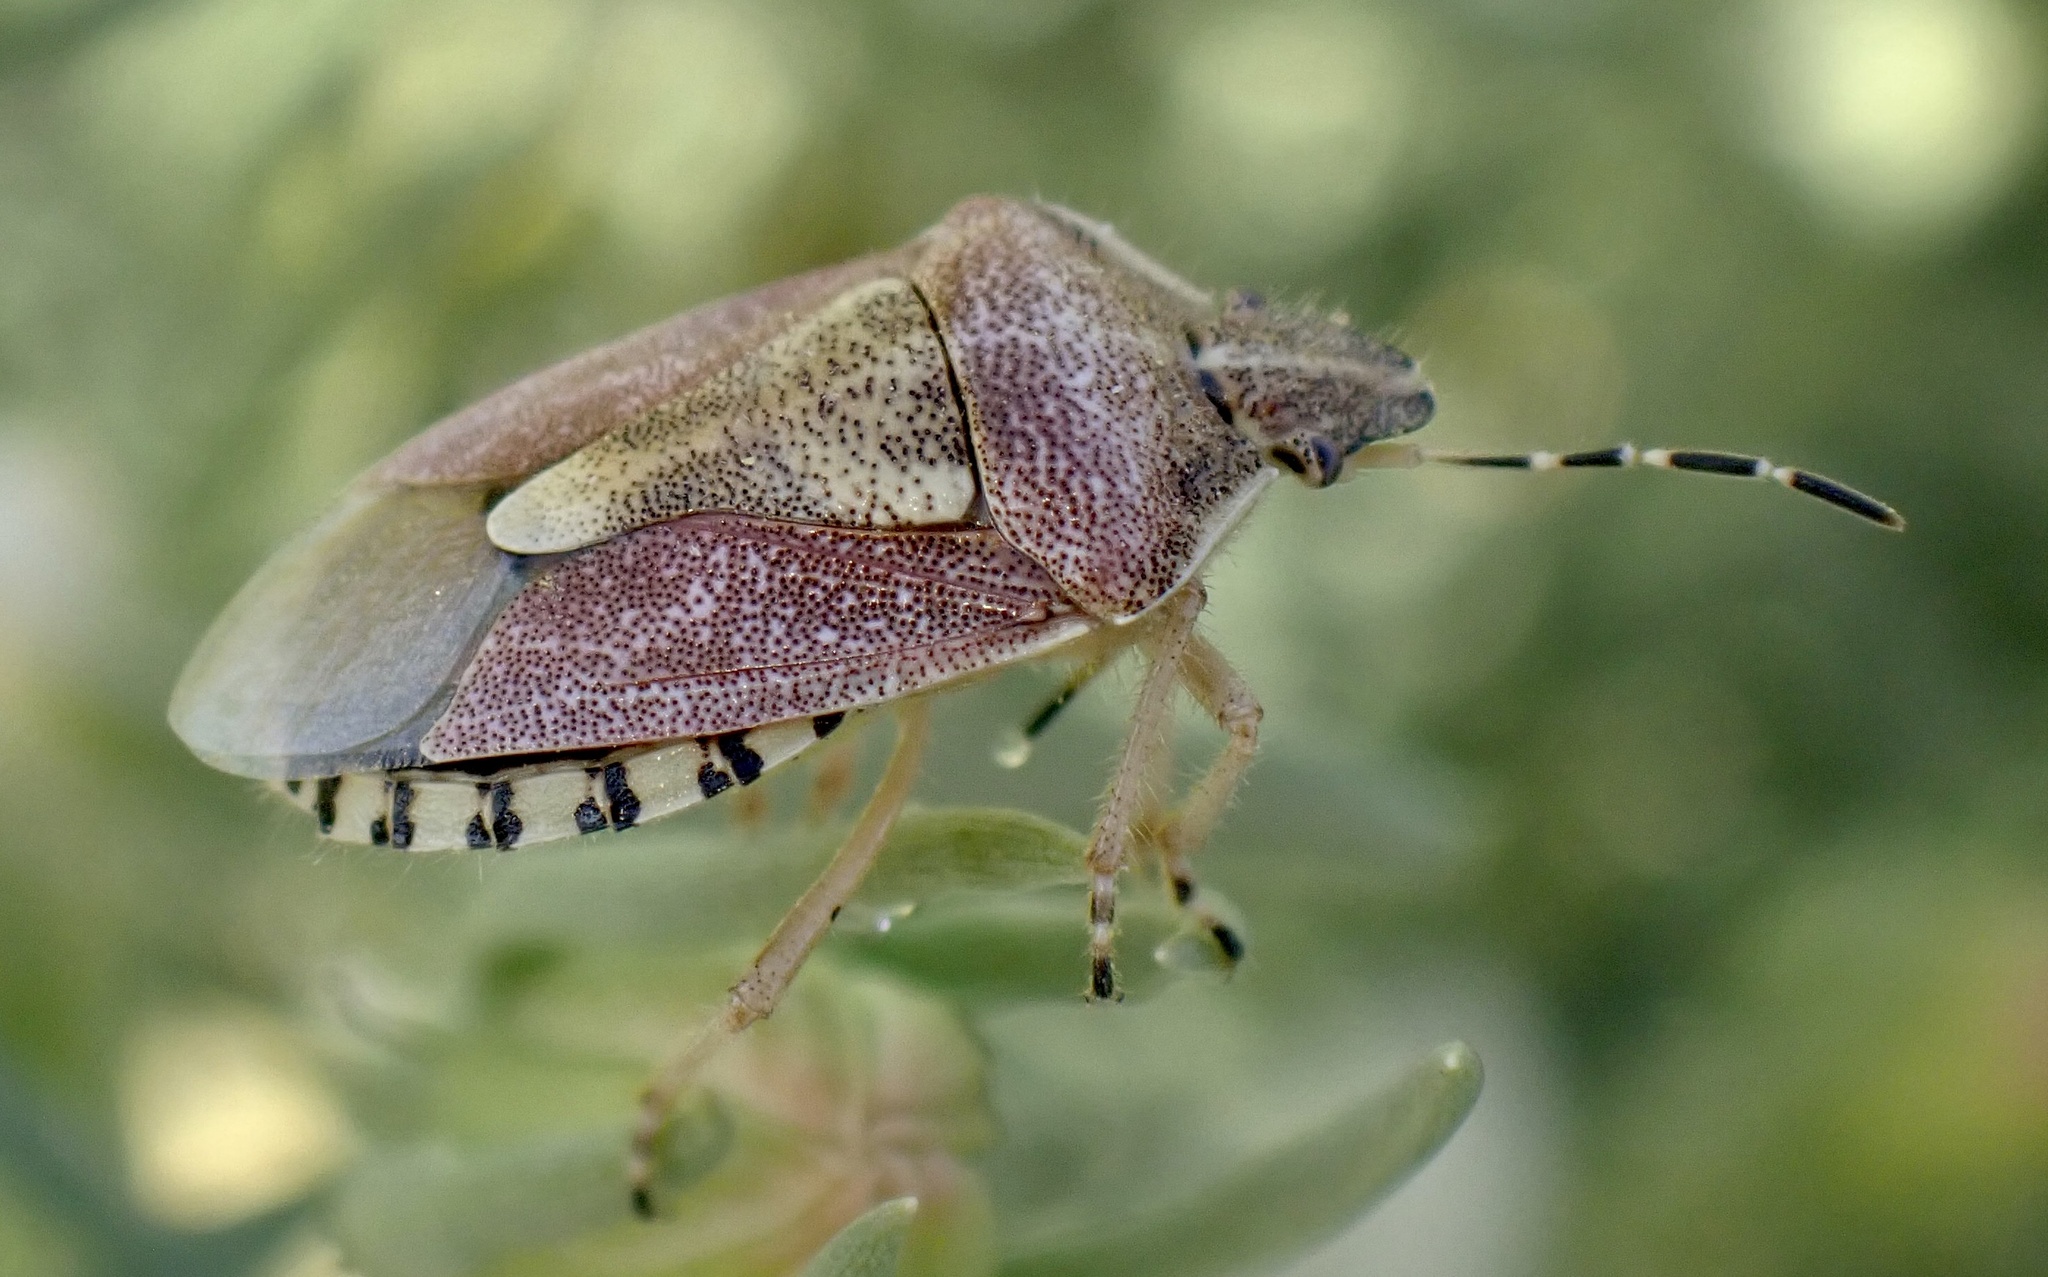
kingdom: Animalia
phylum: Arthropoda
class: Insecta
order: Hemiptera
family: Pentatomidae
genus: Dolycoris
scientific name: Dolycoris numidicus
